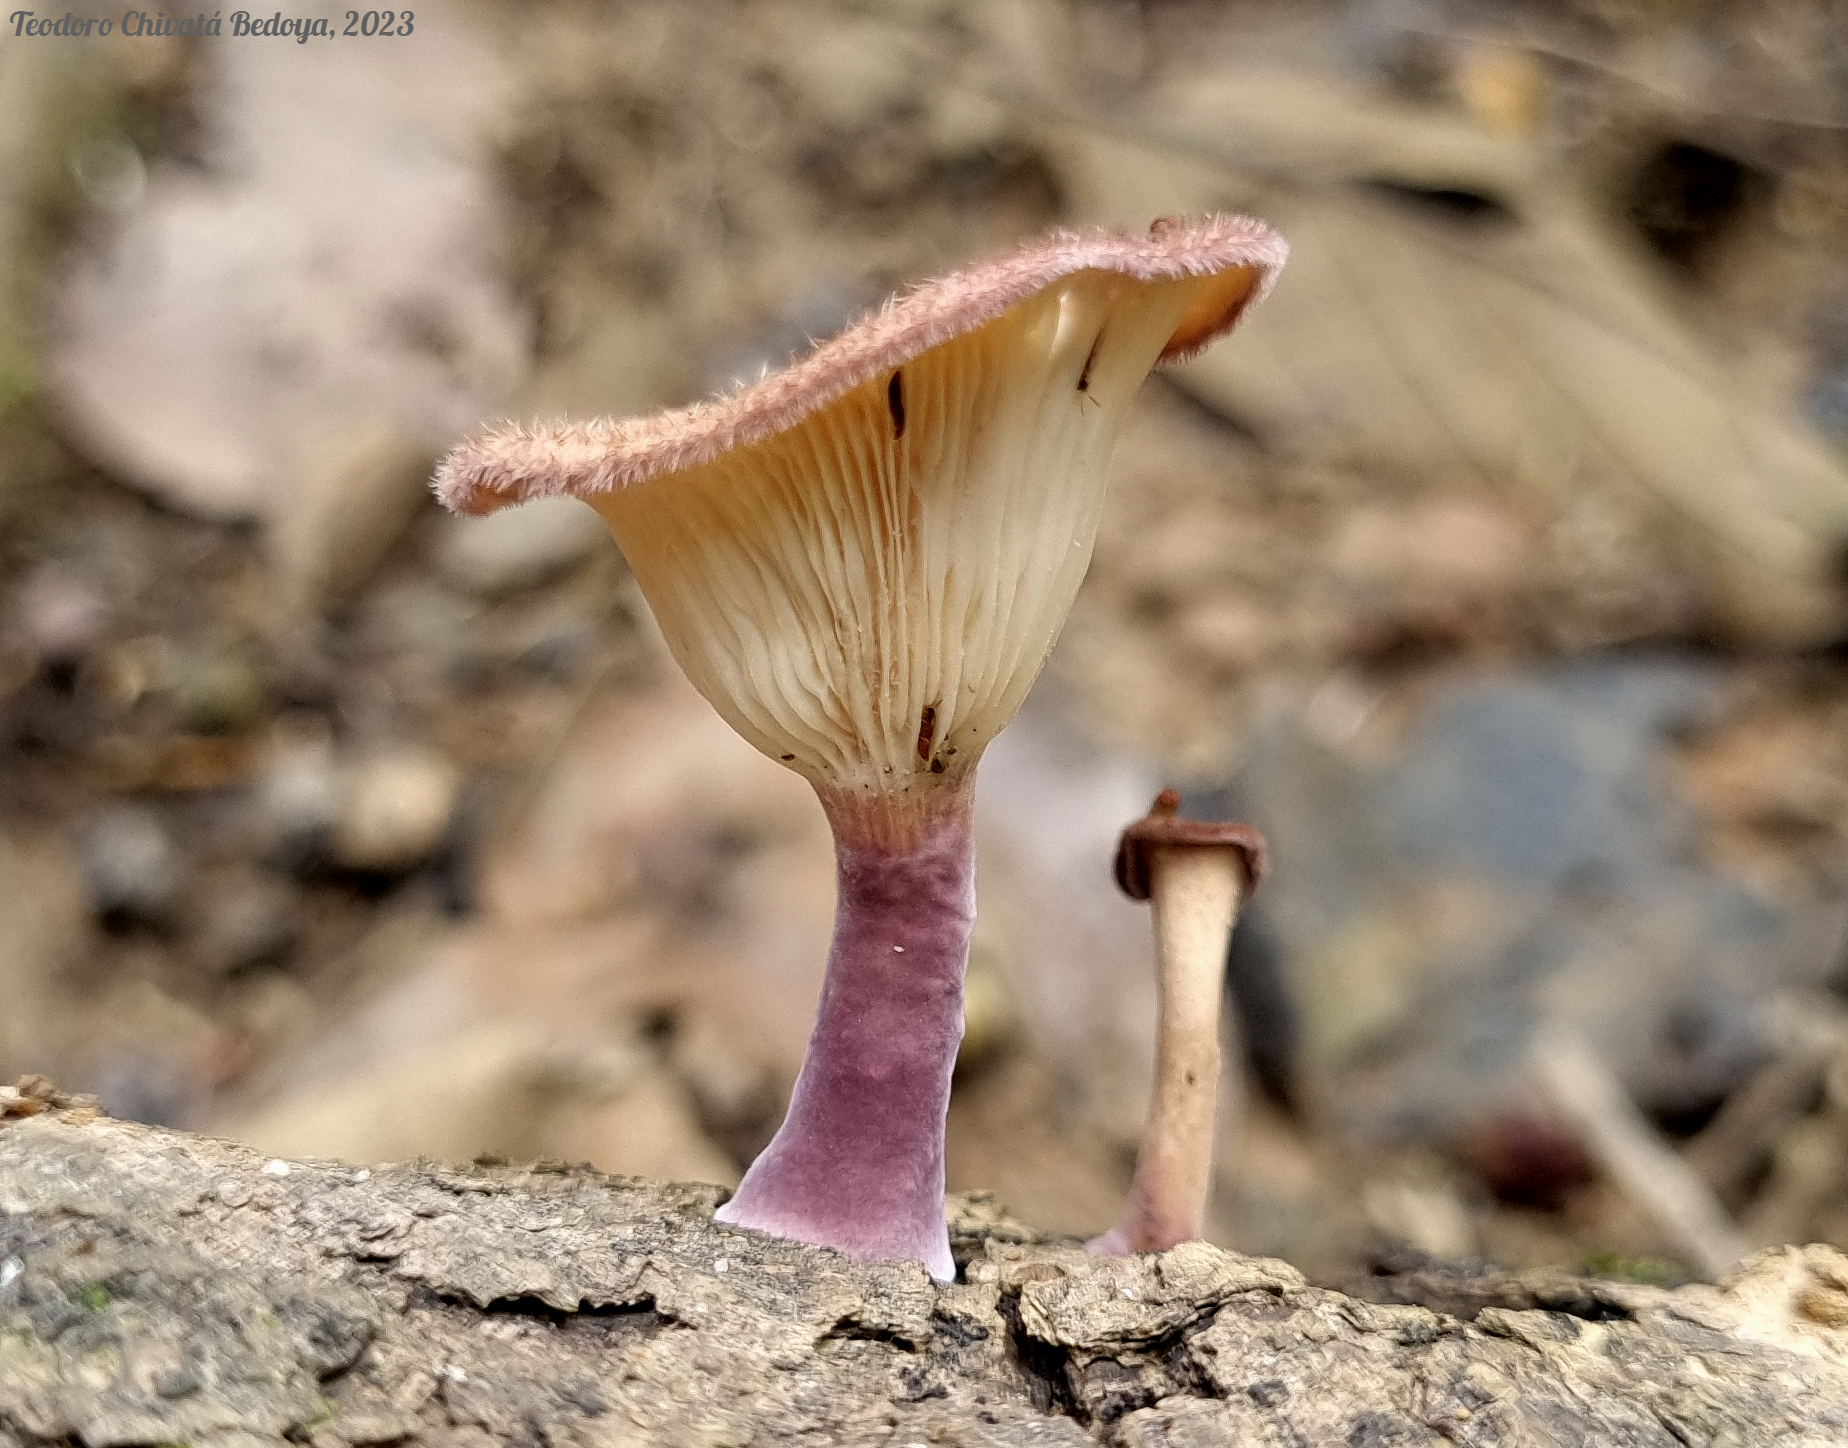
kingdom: Fungi
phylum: Basidiomycota
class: Agaricomycetes
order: Polyporales
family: Panaceae
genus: Panus
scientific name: Panus strigellus
